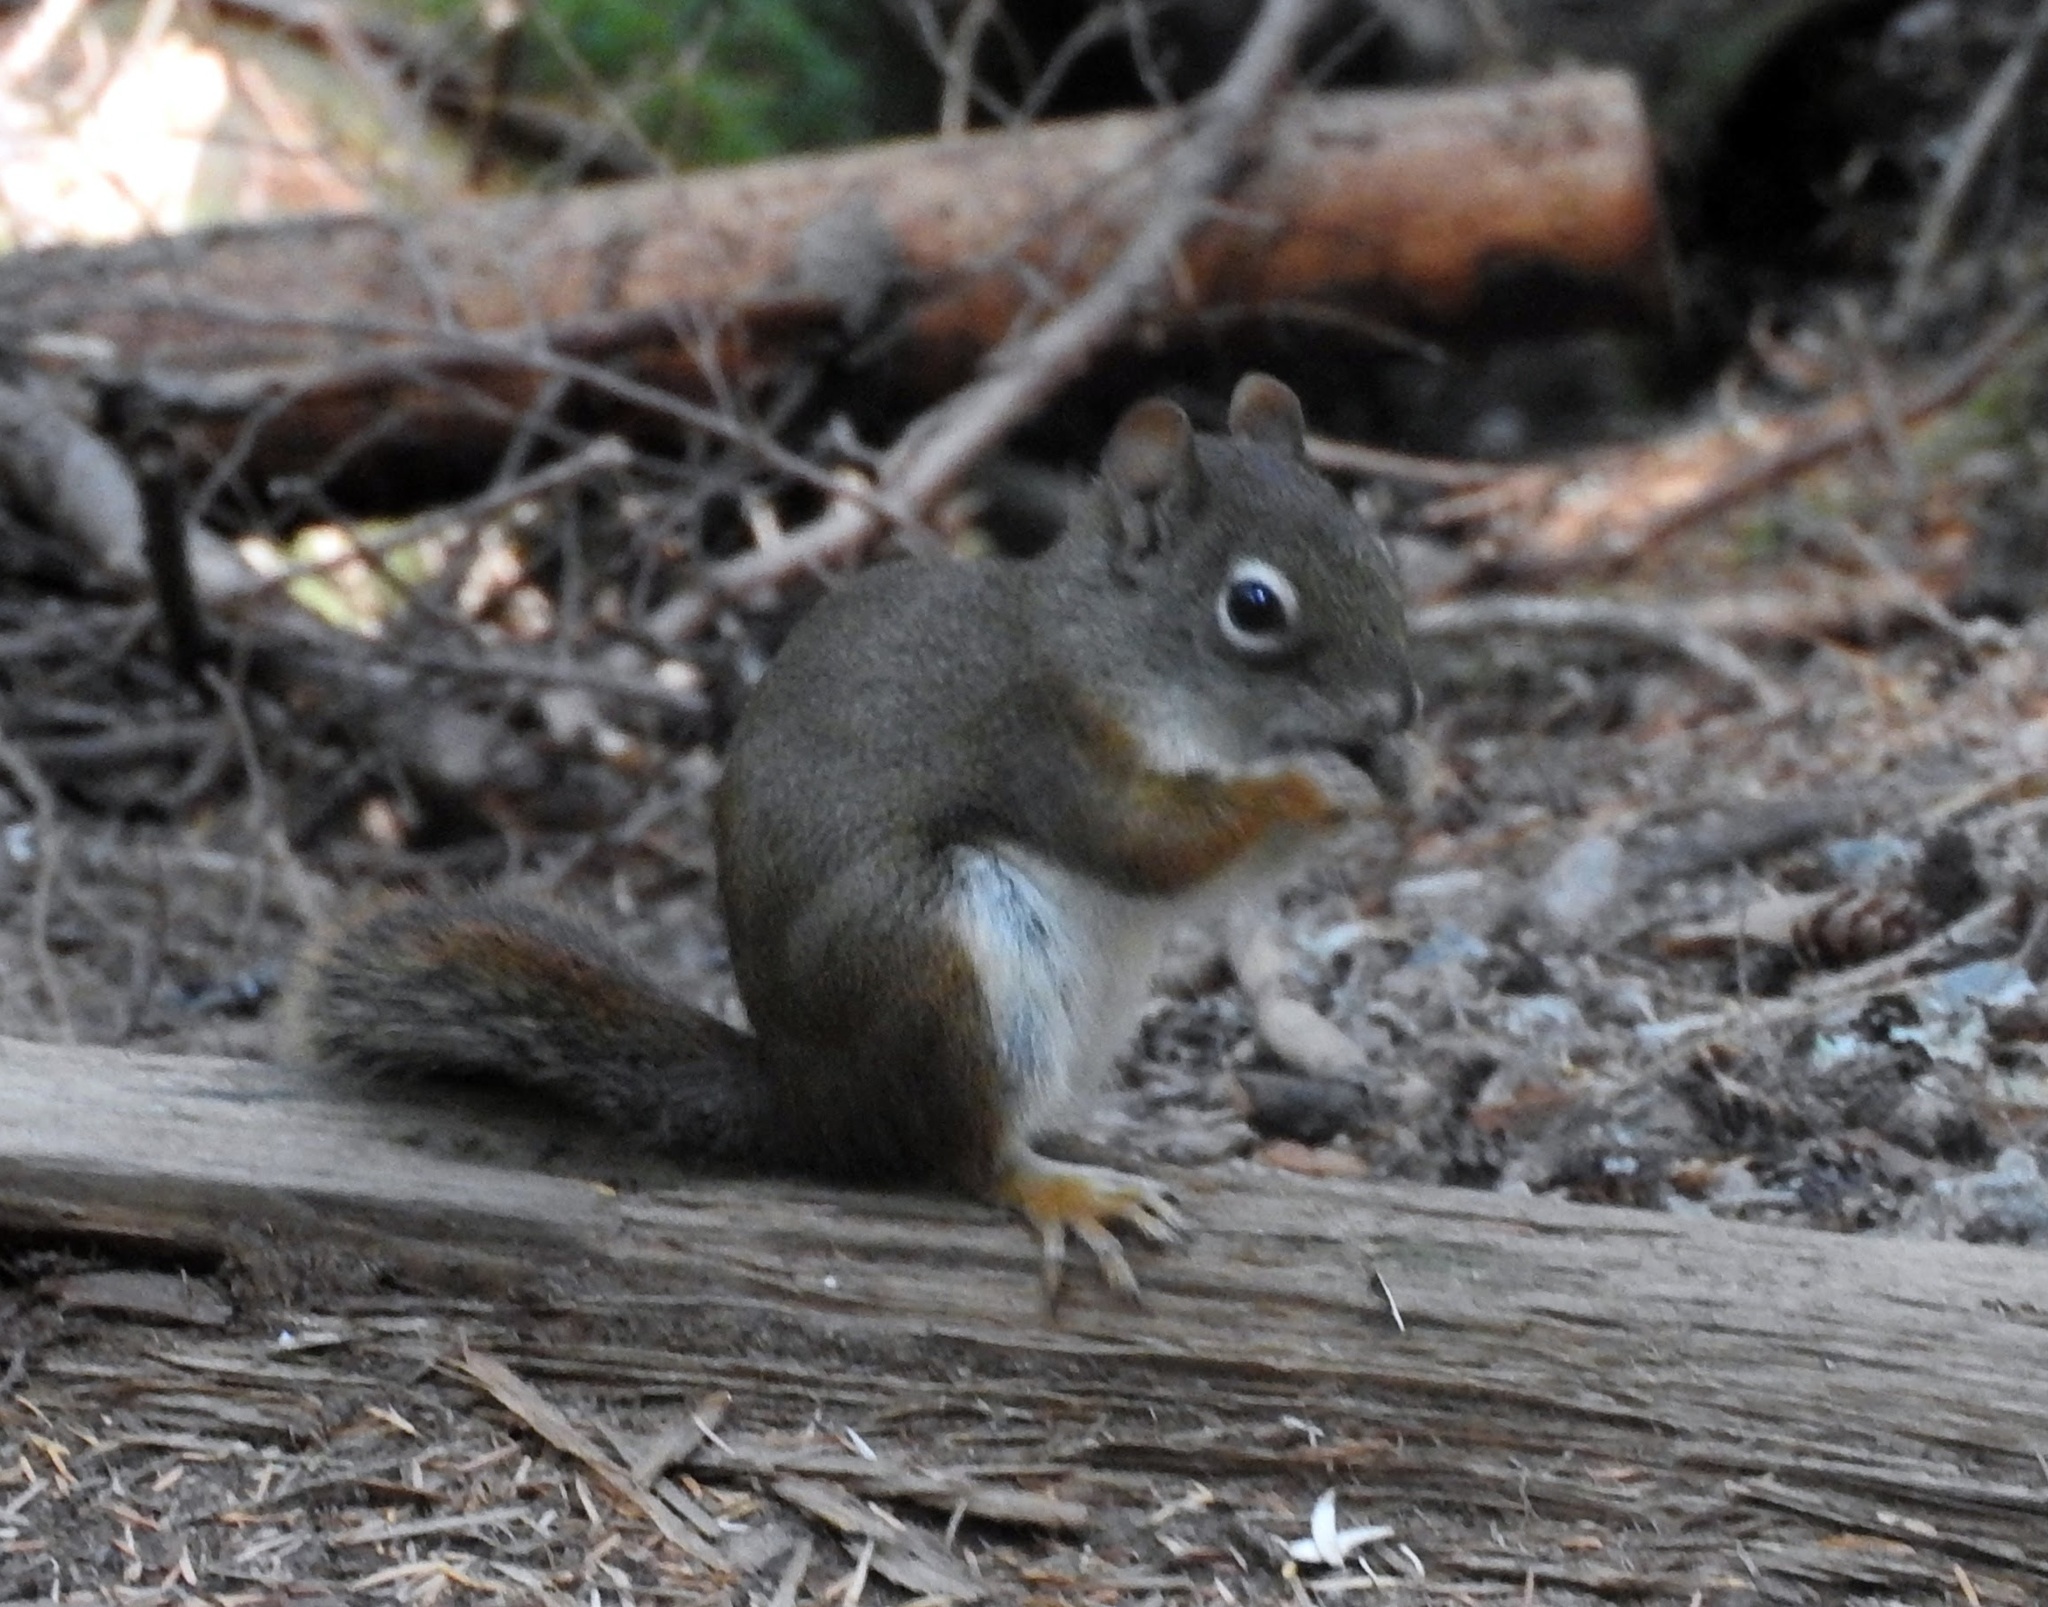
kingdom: Animalia
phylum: Chordata
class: Mammalia
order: Rodentia
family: Sciuridae
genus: Tamiasciurus
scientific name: Tamiasciurus hudsonicus
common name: Red squirrel
